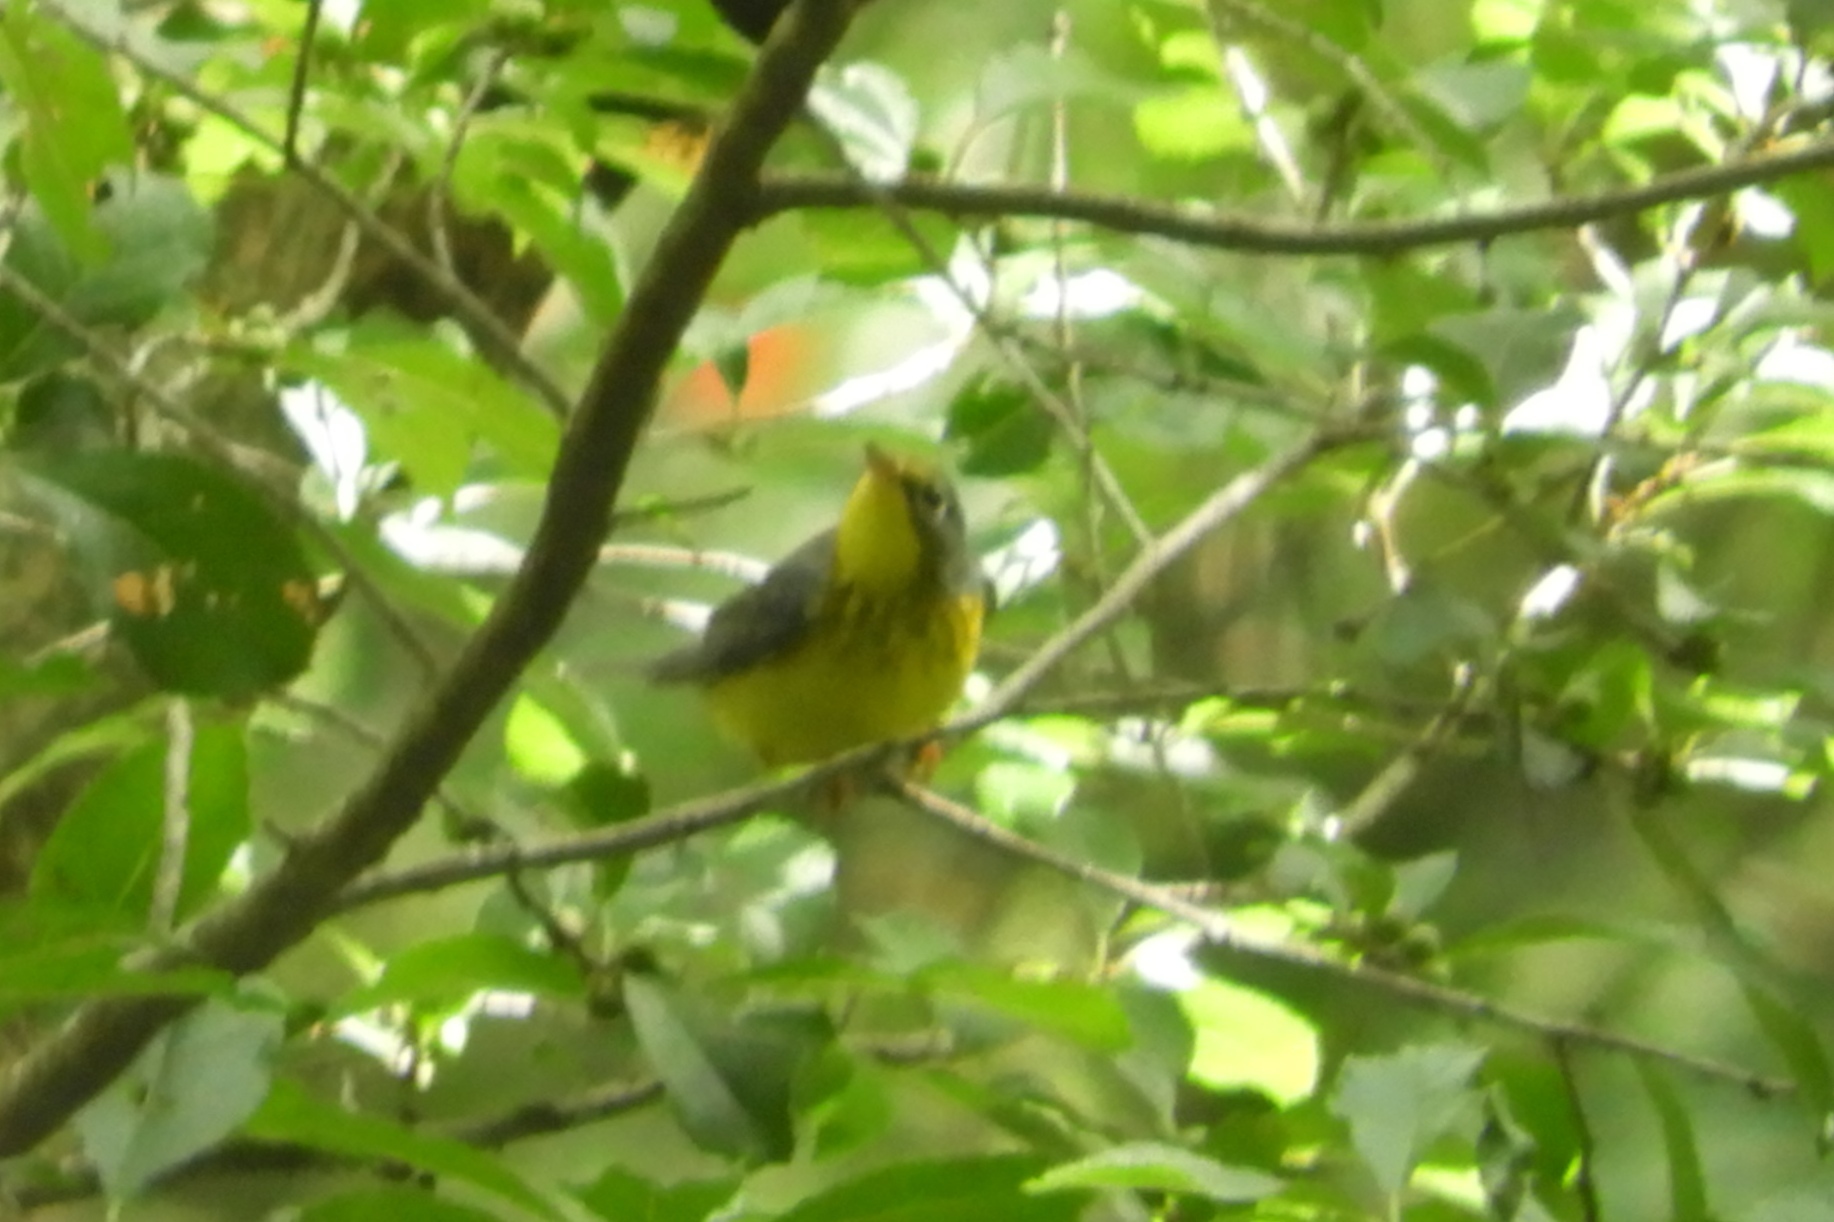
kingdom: Animalia
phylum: Chordata
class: Aves
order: Passeriformes
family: Parulidae
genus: Cardellina
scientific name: Cardellina canadensis
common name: Canada warbler
